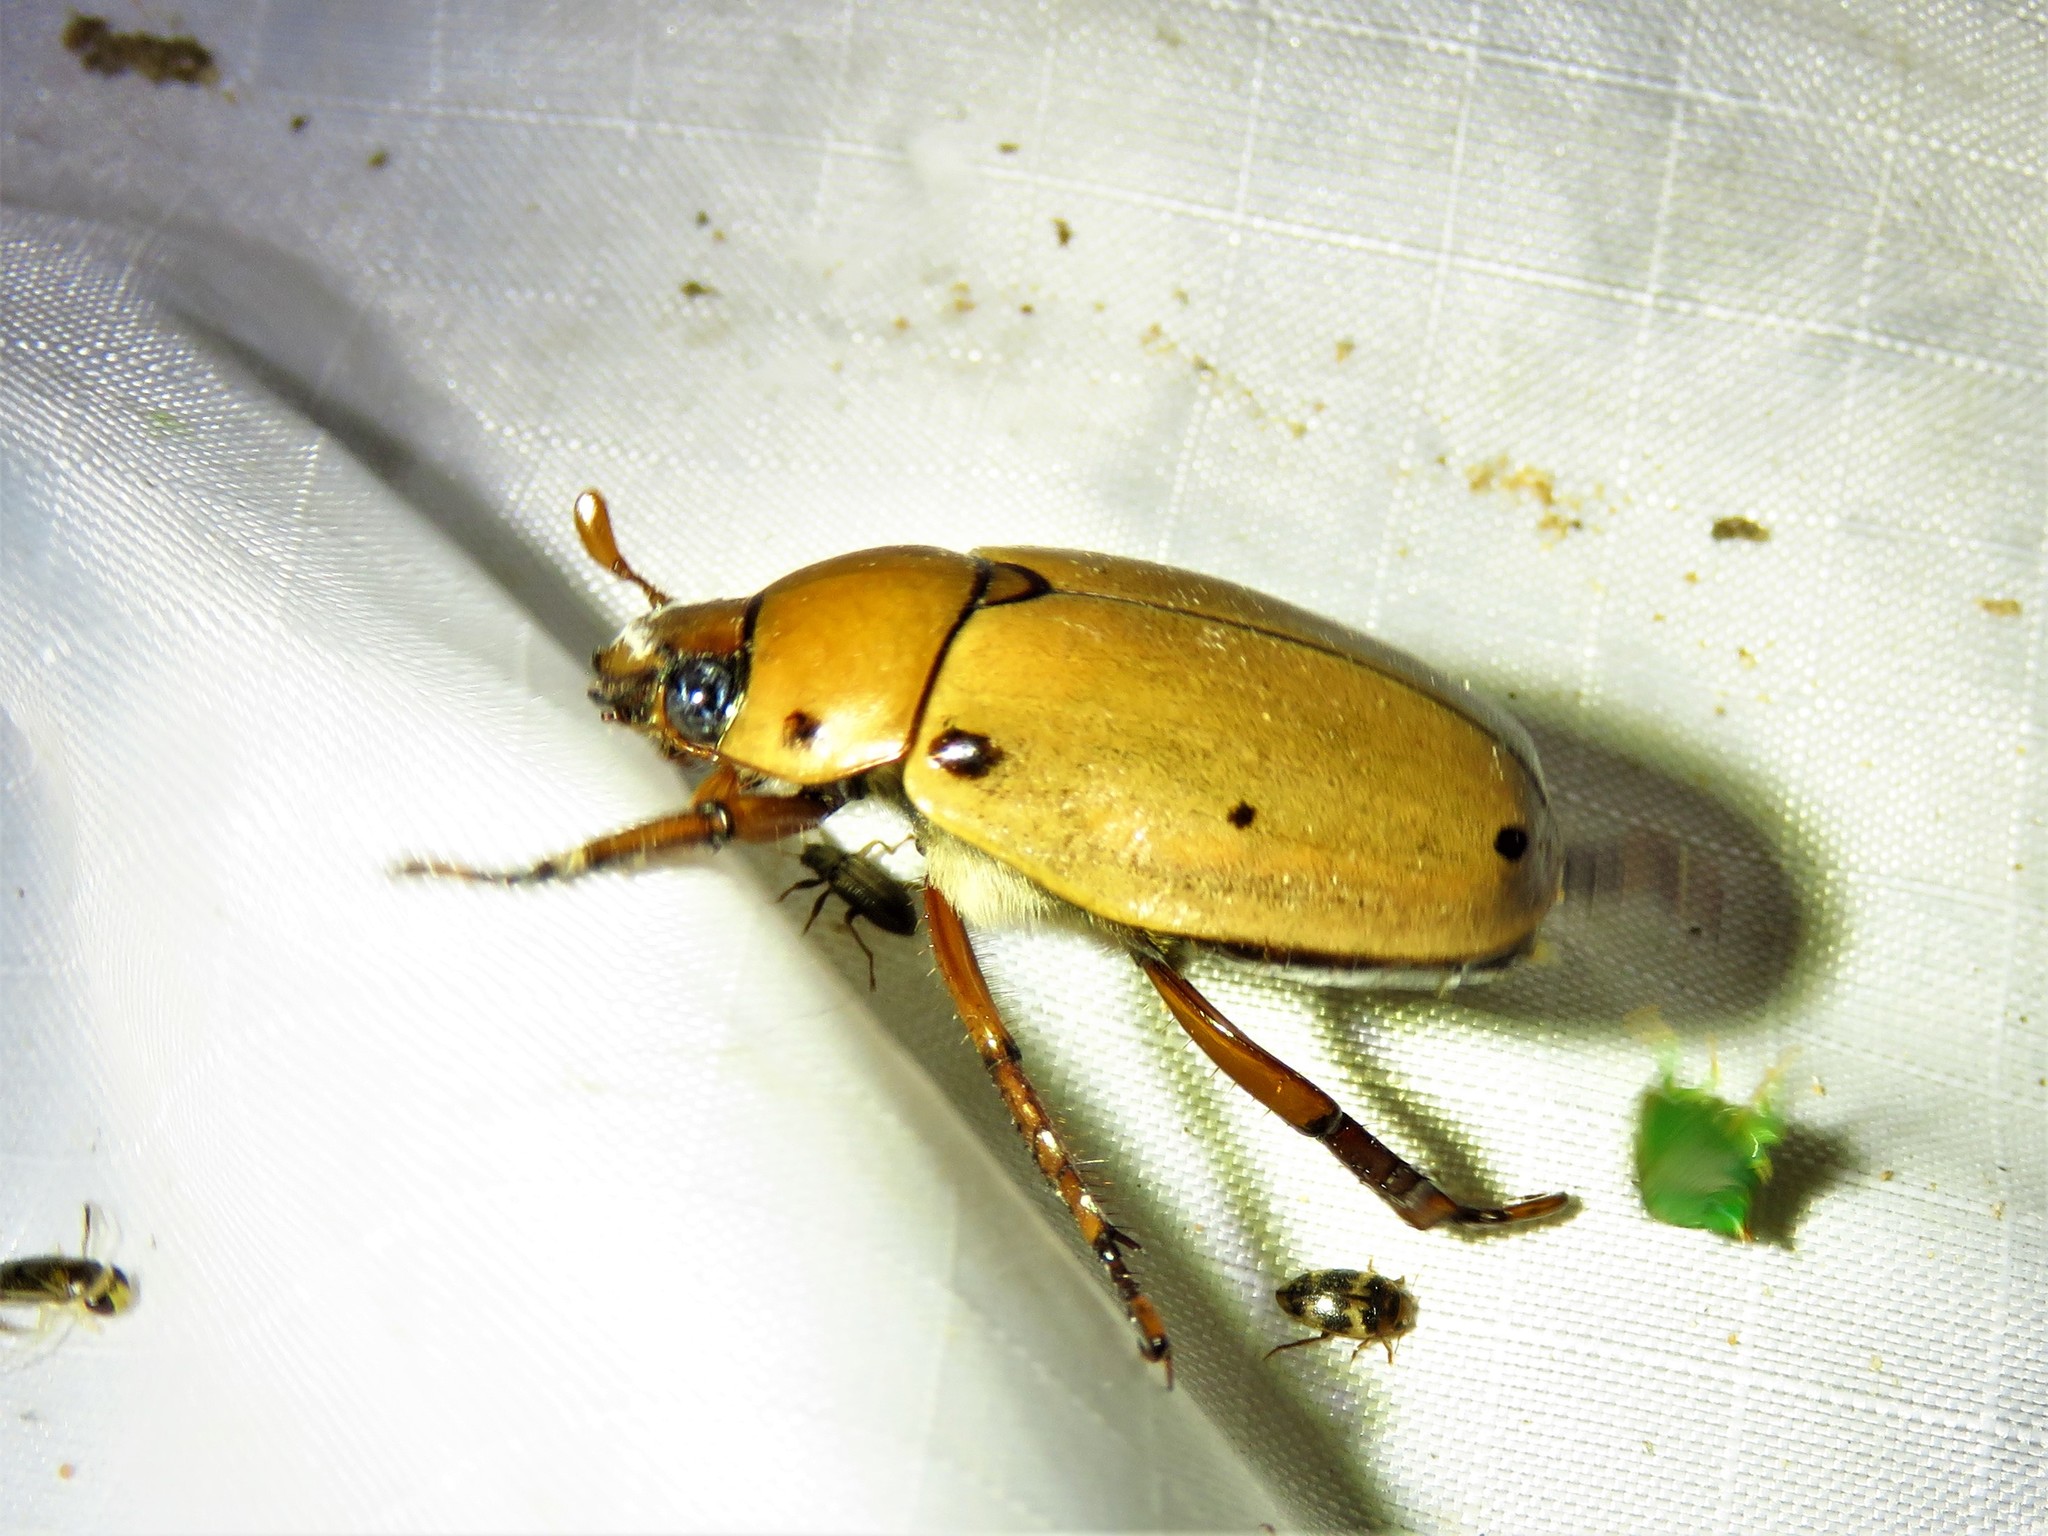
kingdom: Animalia
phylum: Arthropoda
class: Insecta
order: Coleoptera
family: Scarabaeidae
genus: Pelidnota
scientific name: Pelidnota punctata
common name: Grapevine beetle
